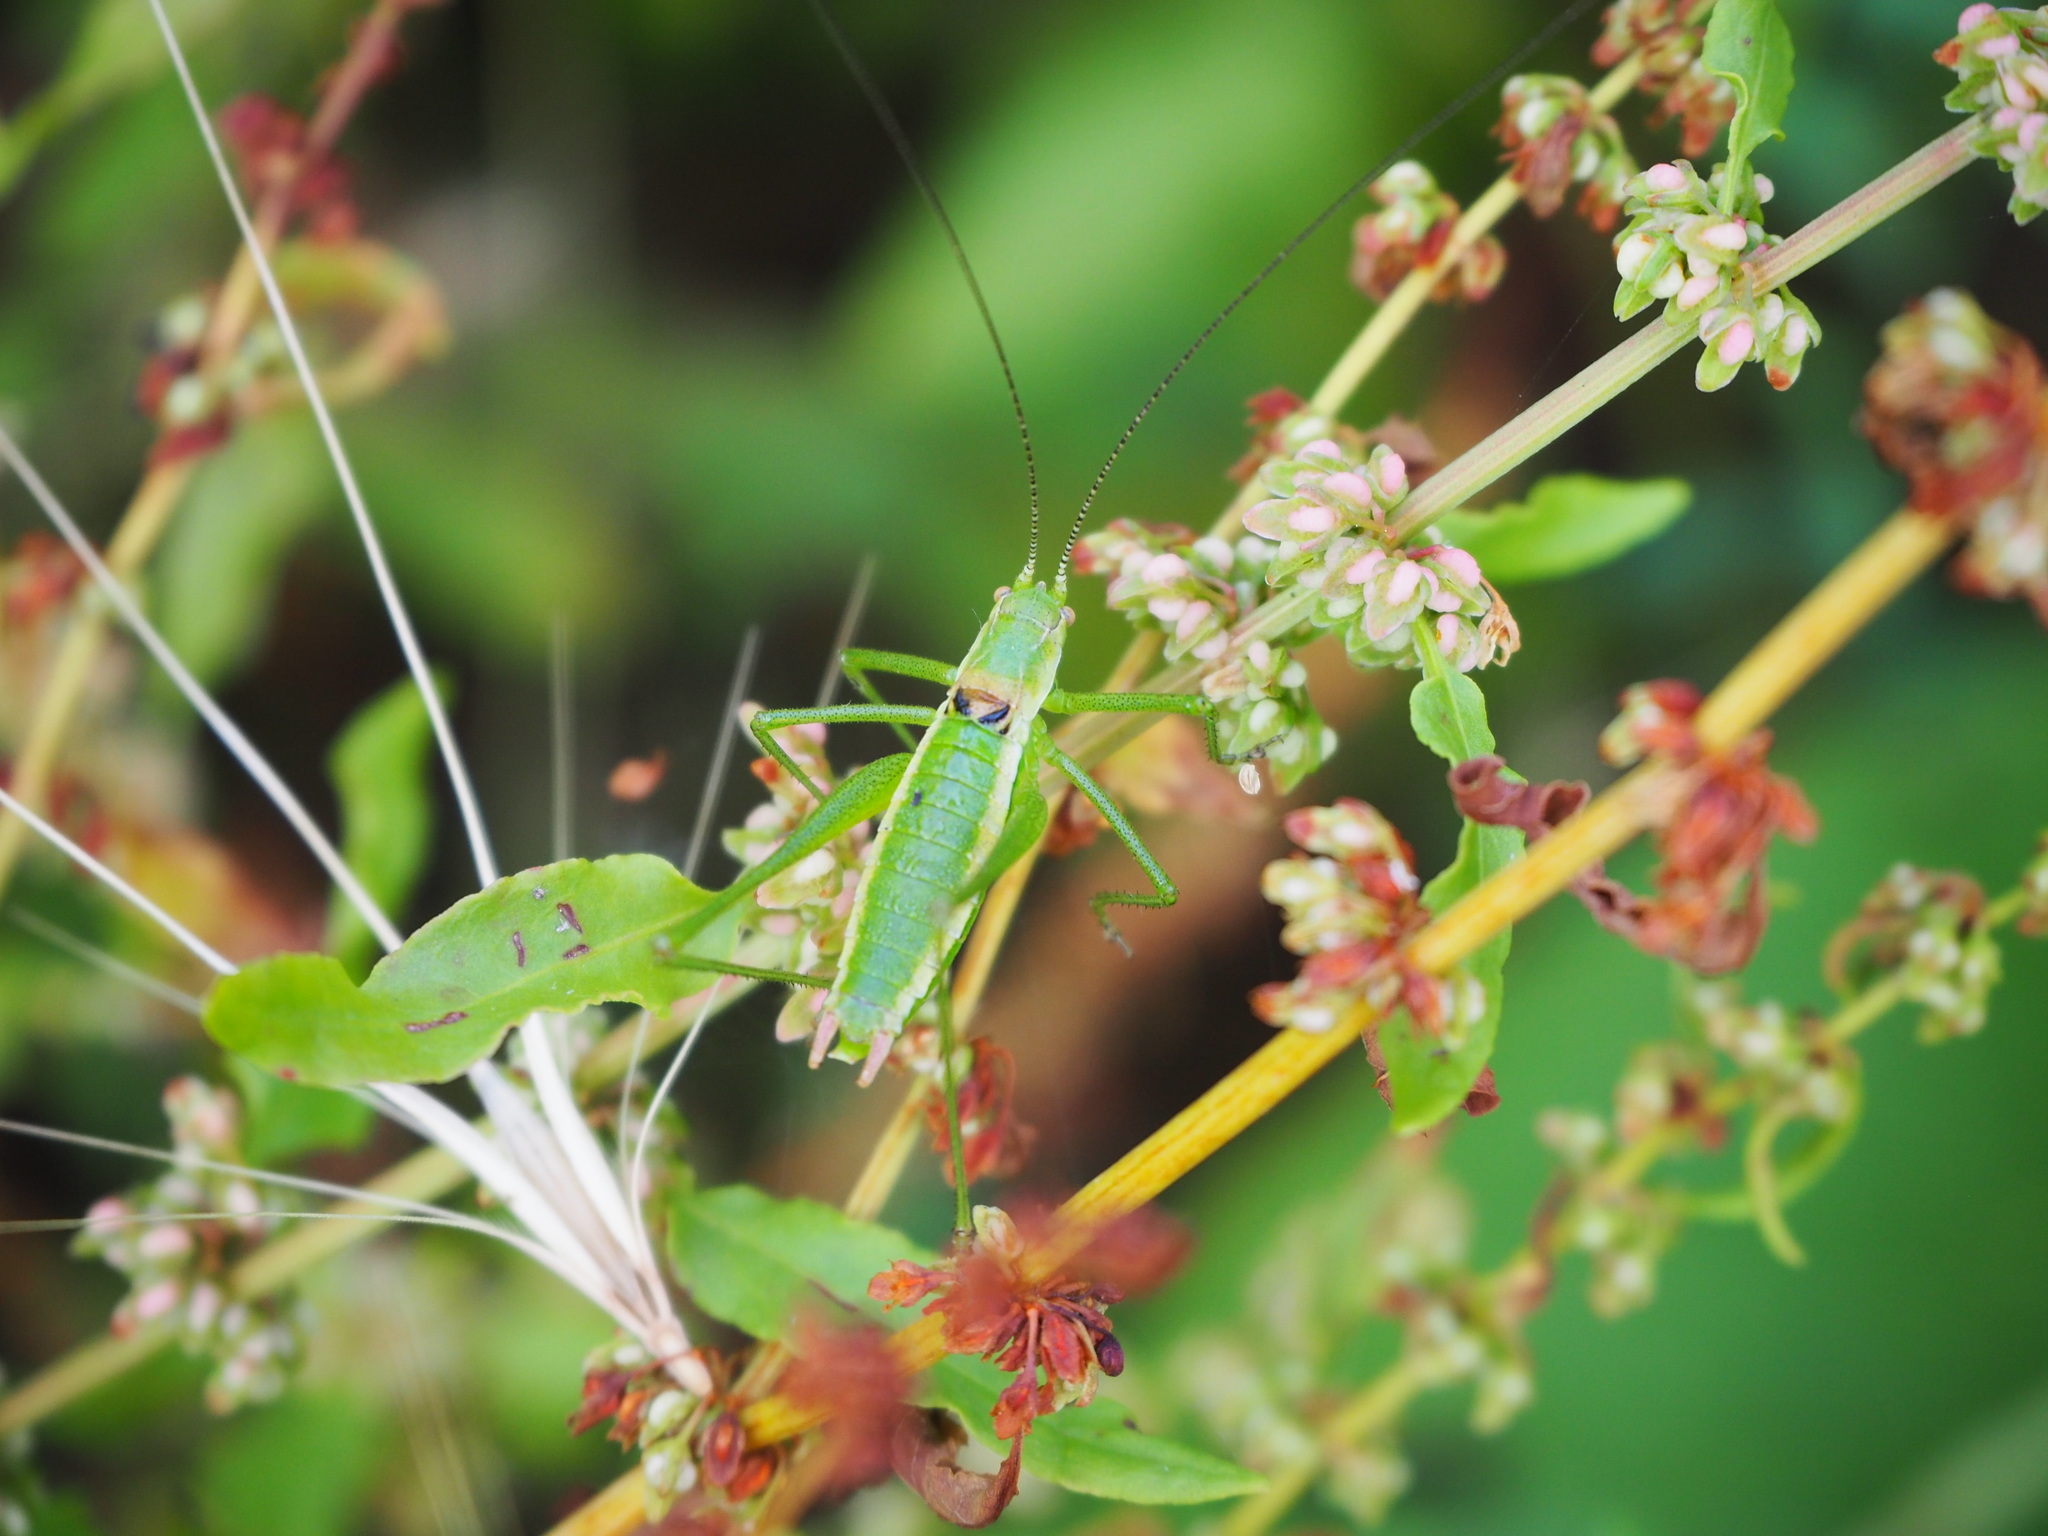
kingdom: Animalia
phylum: Arthropoda
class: Insecta
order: Orthoptera
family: Tettigoniidae
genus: Leptophyes
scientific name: Leptophyes boscii
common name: Balkan speckled bush-cricket
